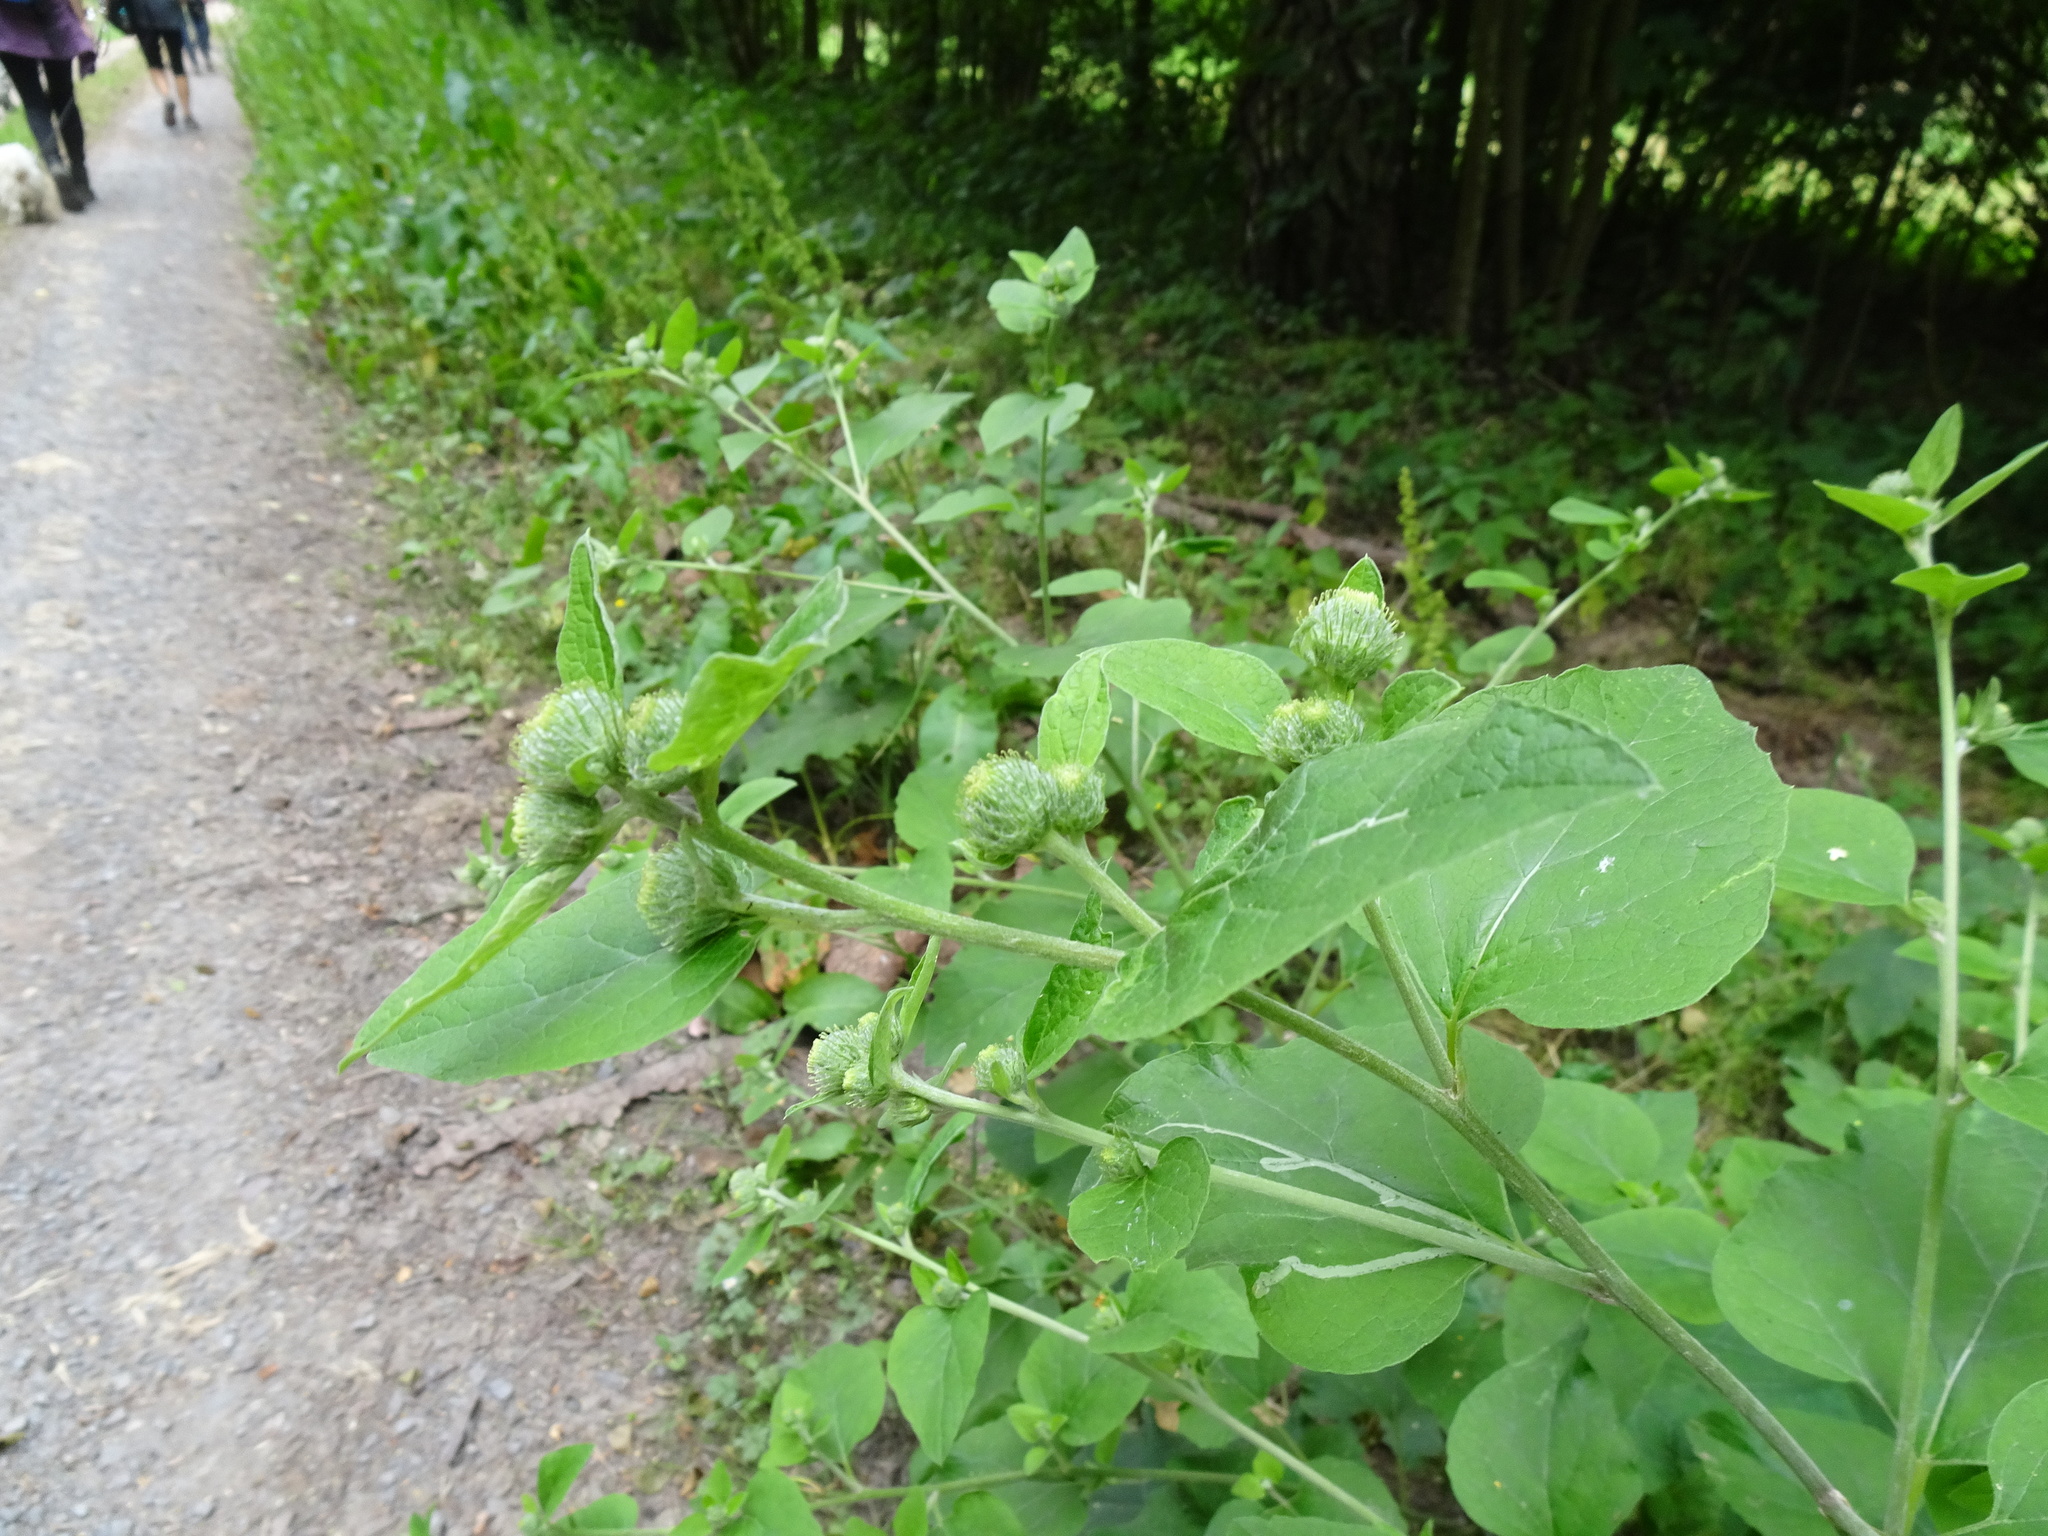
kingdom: Plantae
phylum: Tracheophyta
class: Magnoliopsida
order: Asterales
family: Asteraceae
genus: Arctium
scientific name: Arctium minus
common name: Lesser burdock
